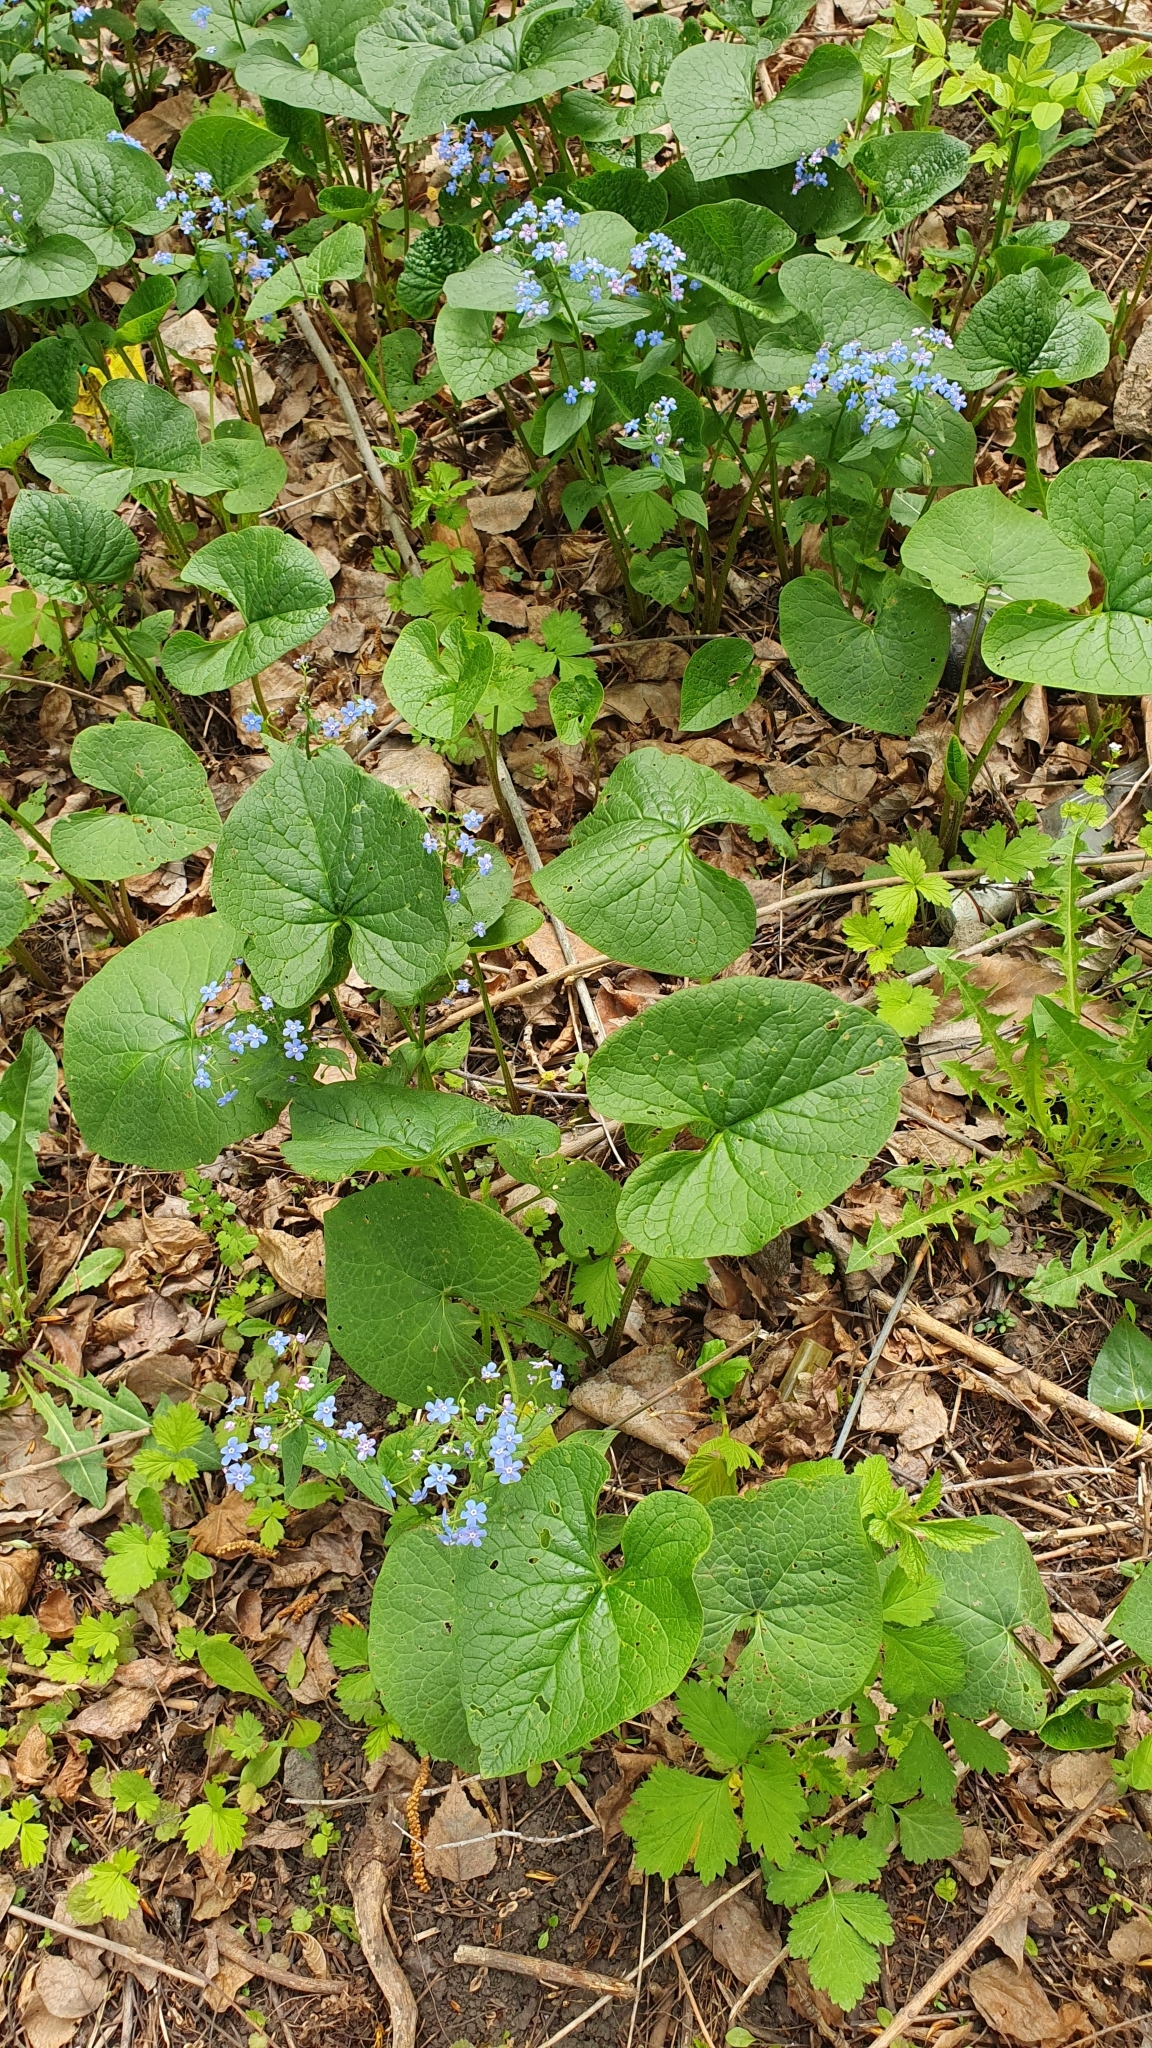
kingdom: Plantae
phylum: Tracheophyta
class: Magnoliopsida
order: Boraginales
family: Boraginaceae
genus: Brunnera
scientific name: Brunnera sibirica
